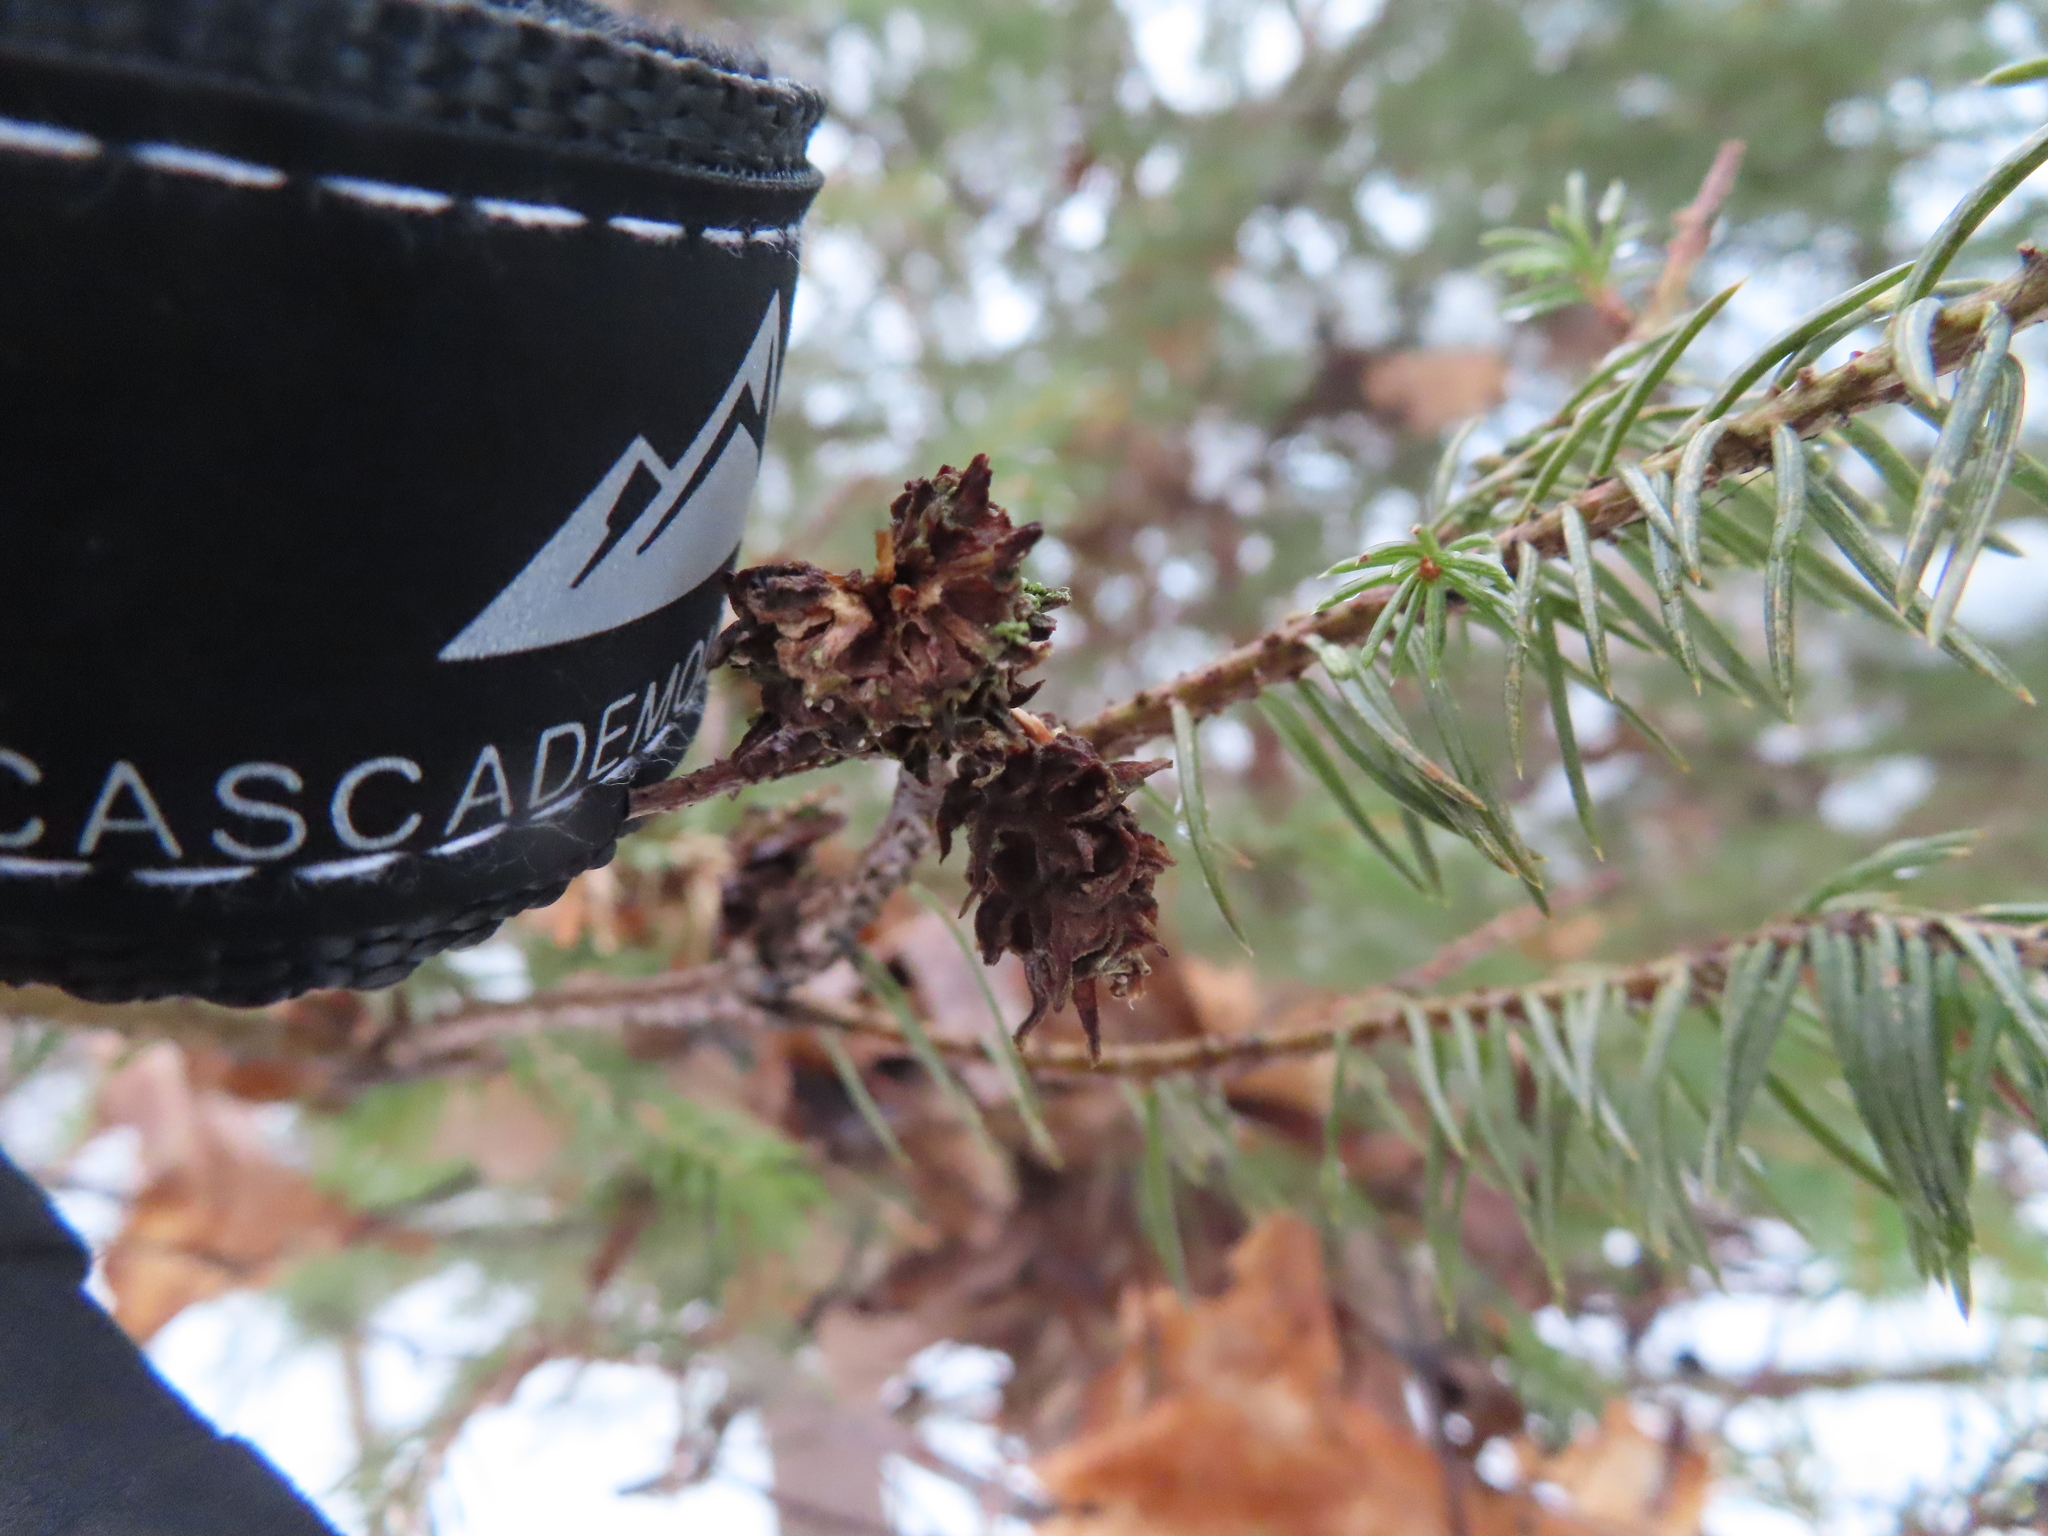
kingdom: Animalia
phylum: Arthropoda
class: Insecta
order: Hemiptera
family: Adelgidae
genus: Adelges
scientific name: Adelges abietis
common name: Eastern spruce gall adelgid
